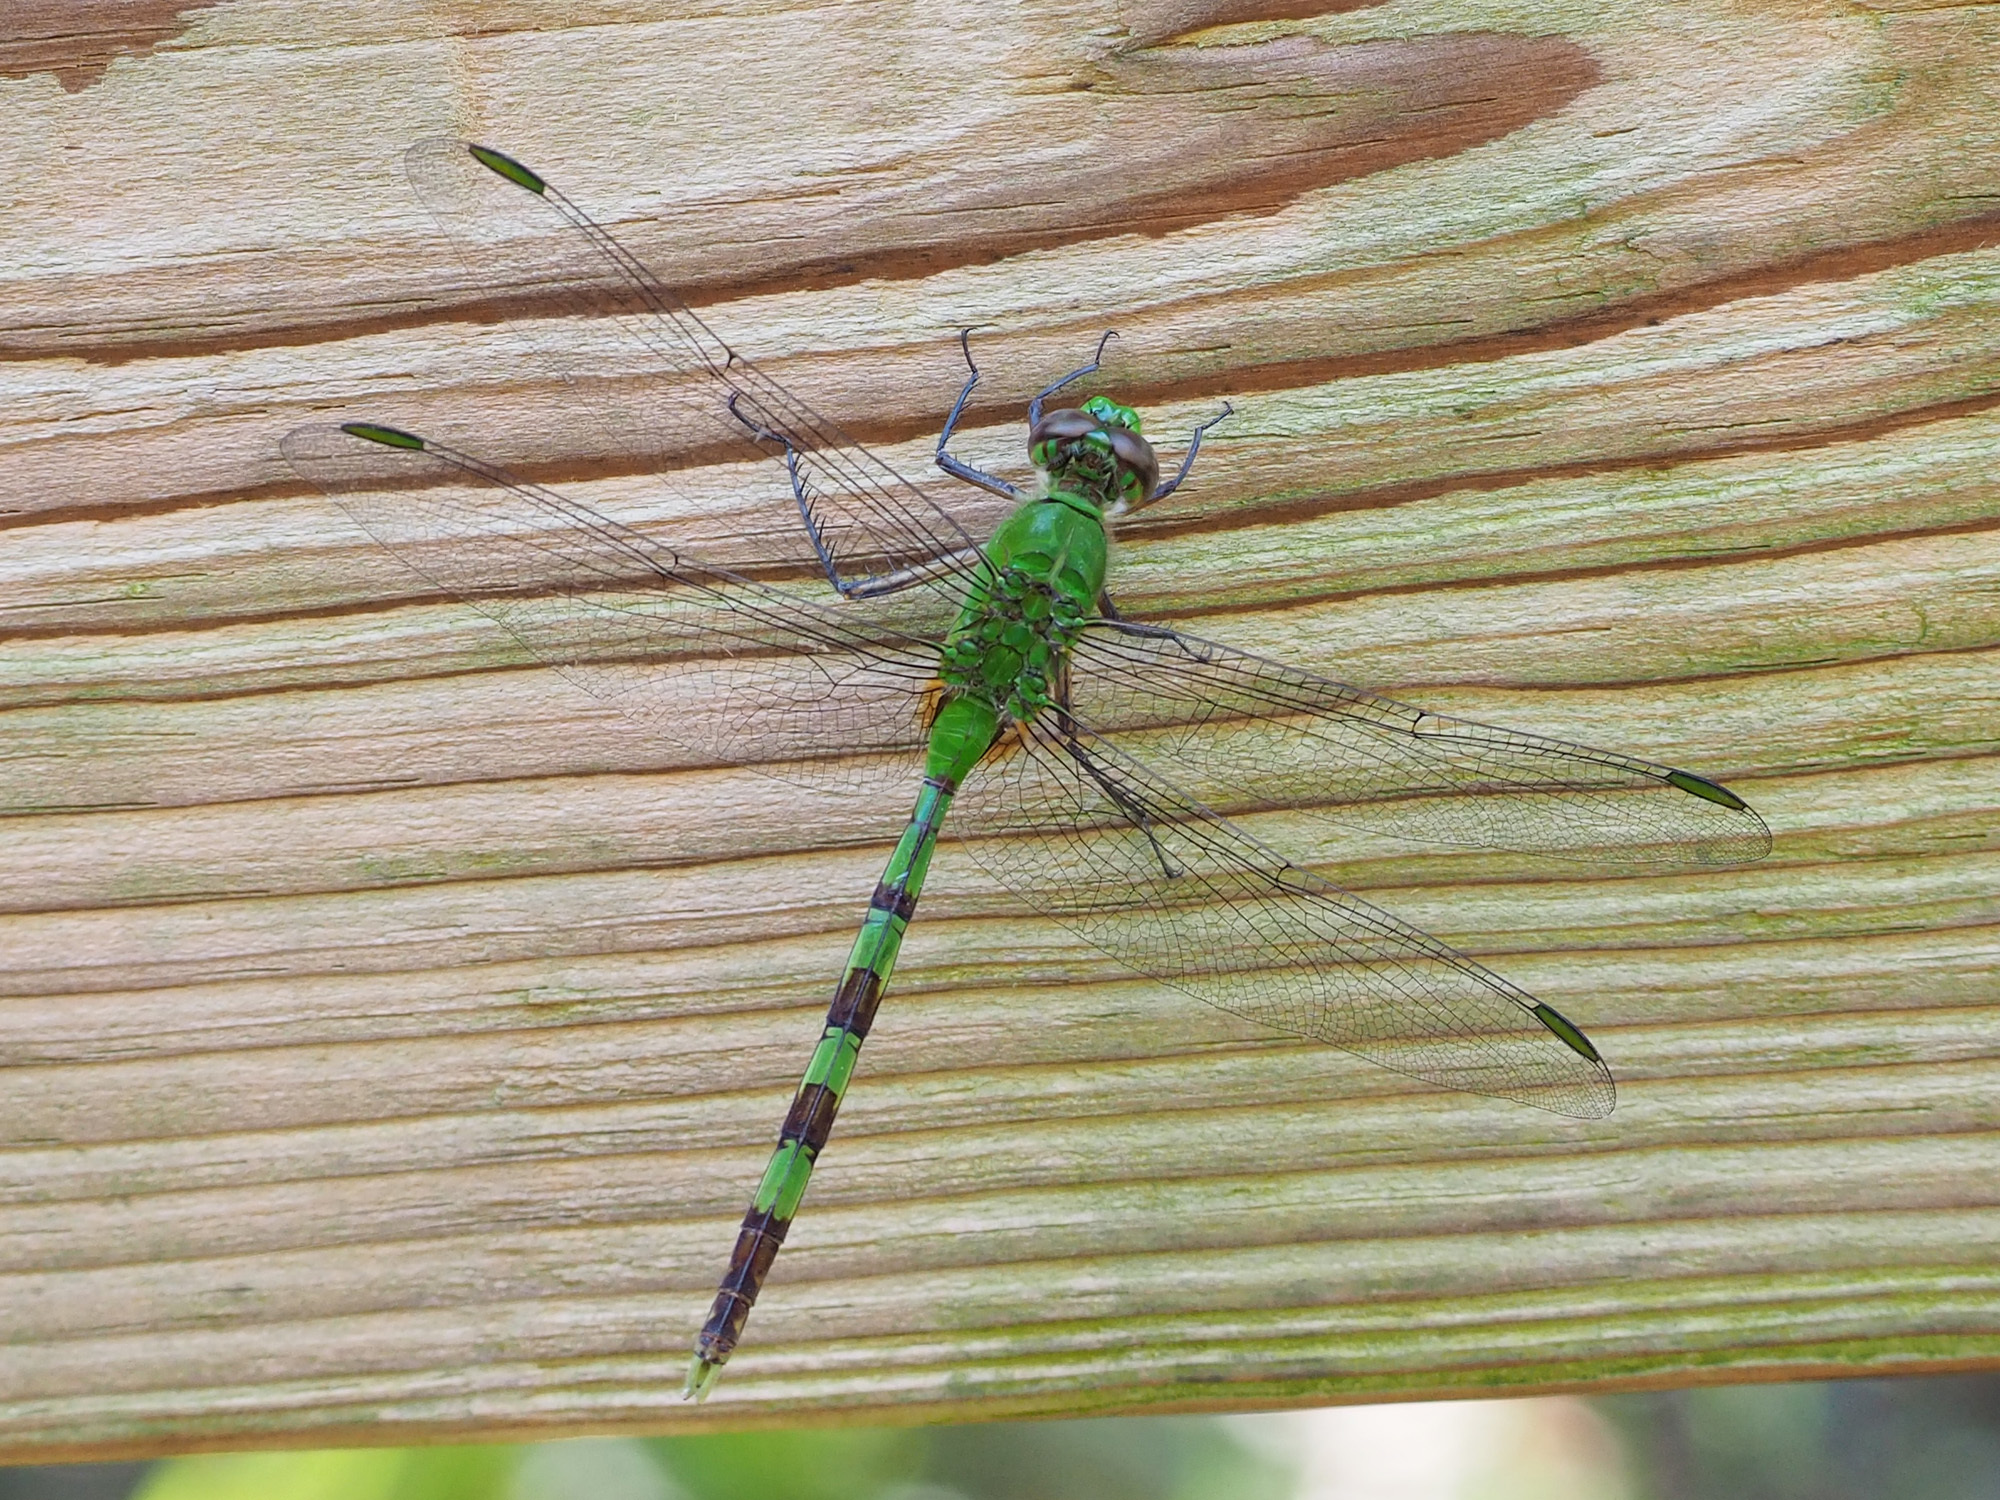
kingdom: Animalia
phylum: Arthropoda
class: Insecta
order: Odonata
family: Libellulidae
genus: Erythemis
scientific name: Erythemis vesiculosa
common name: Great pondhawk
